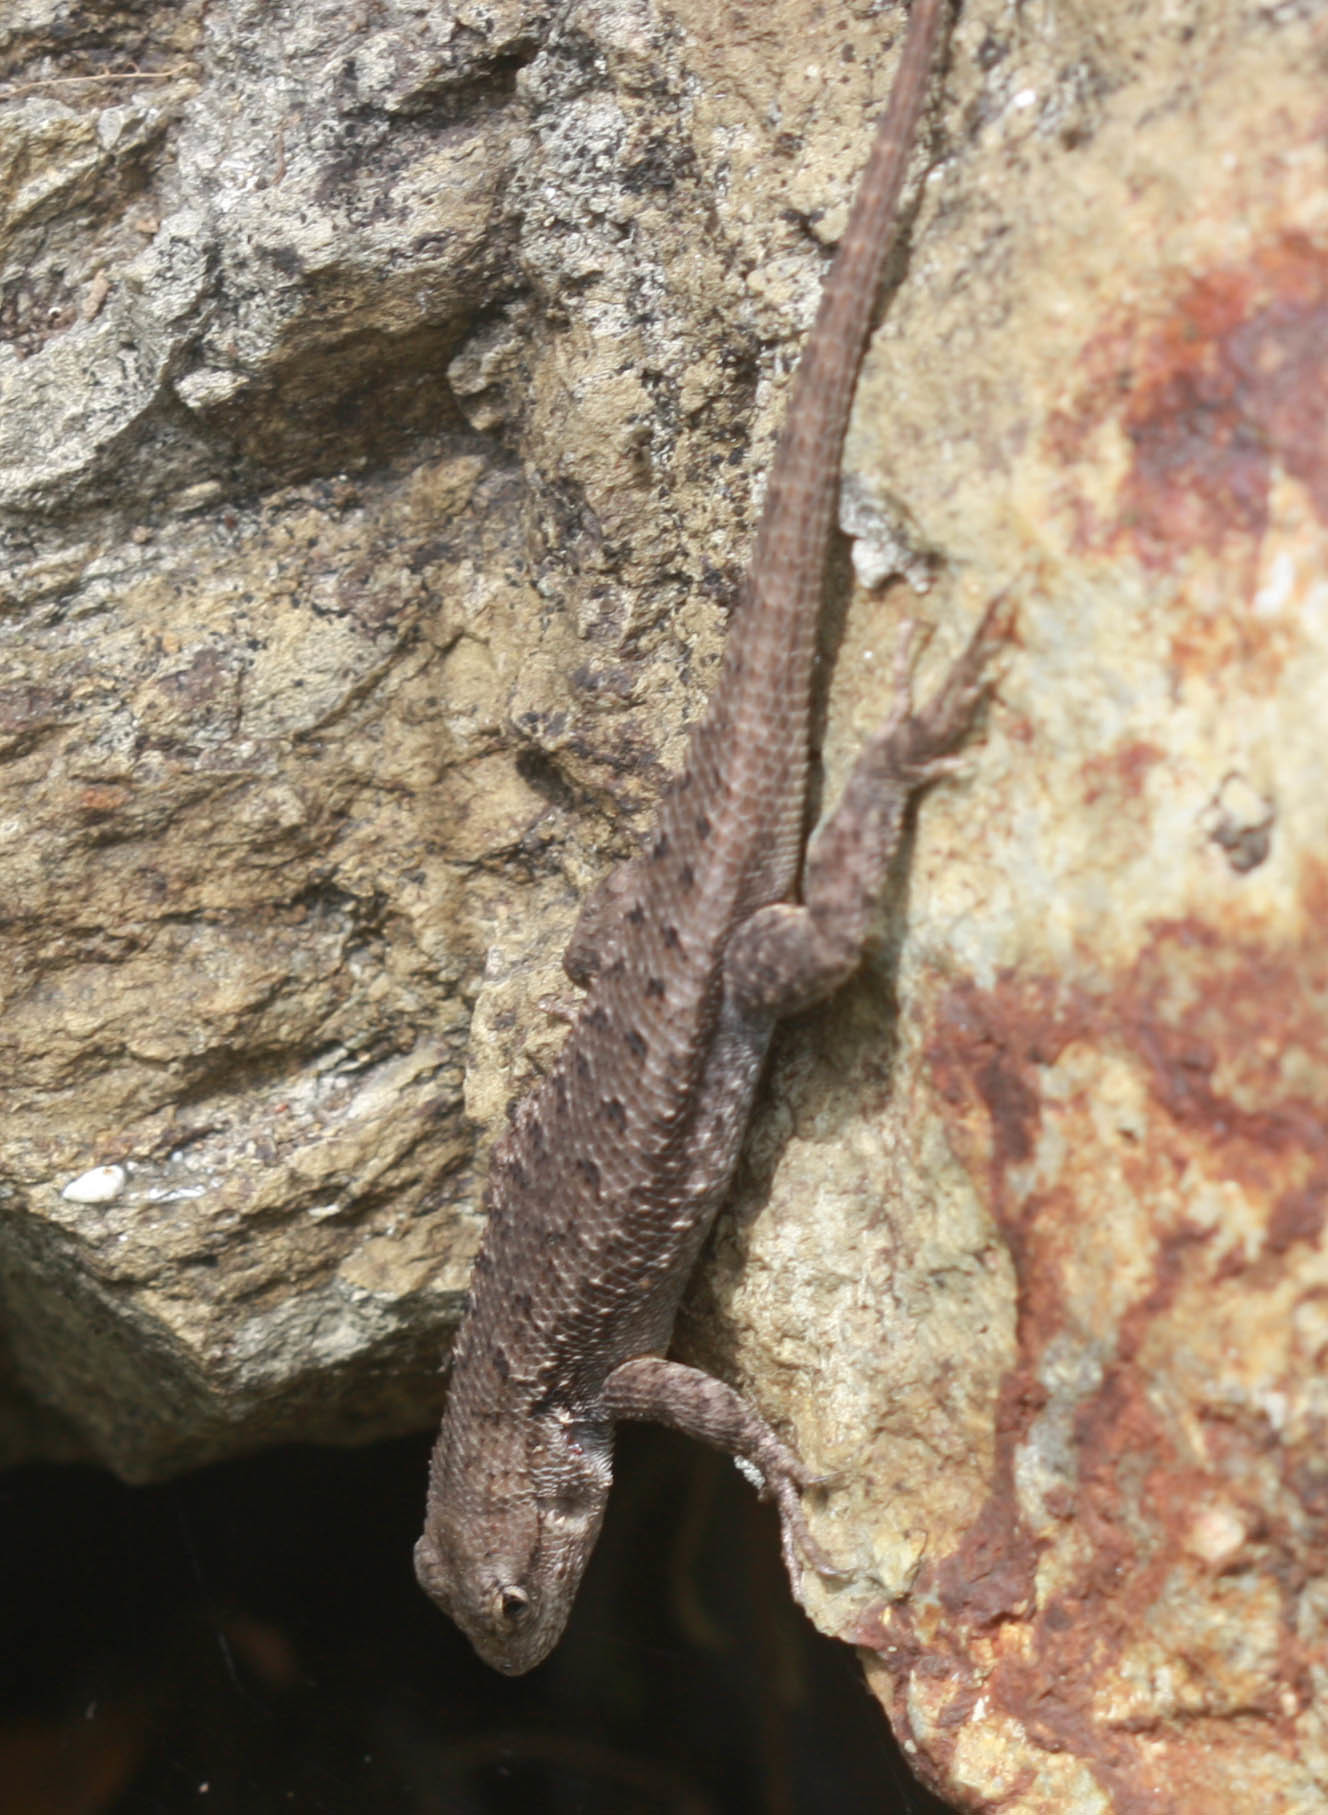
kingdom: Animalia
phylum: Chordata
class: Squamata
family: Phrynosomatidae
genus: Sceloporus
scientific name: Sceloporus occidentalis
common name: Western fence lizard
